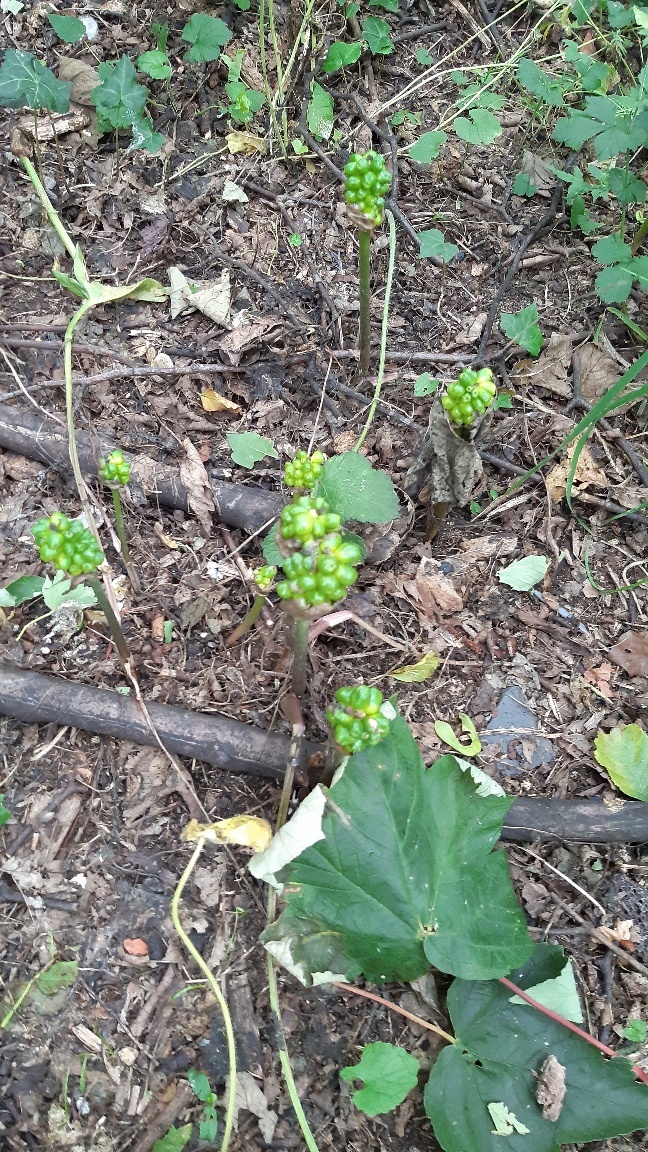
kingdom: Plantae
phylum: Tracheophyta
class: Liliopsida
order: Alismatales
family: Araceae
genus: Arum
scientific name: Arum maculatum
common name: Lords-and-ladies
